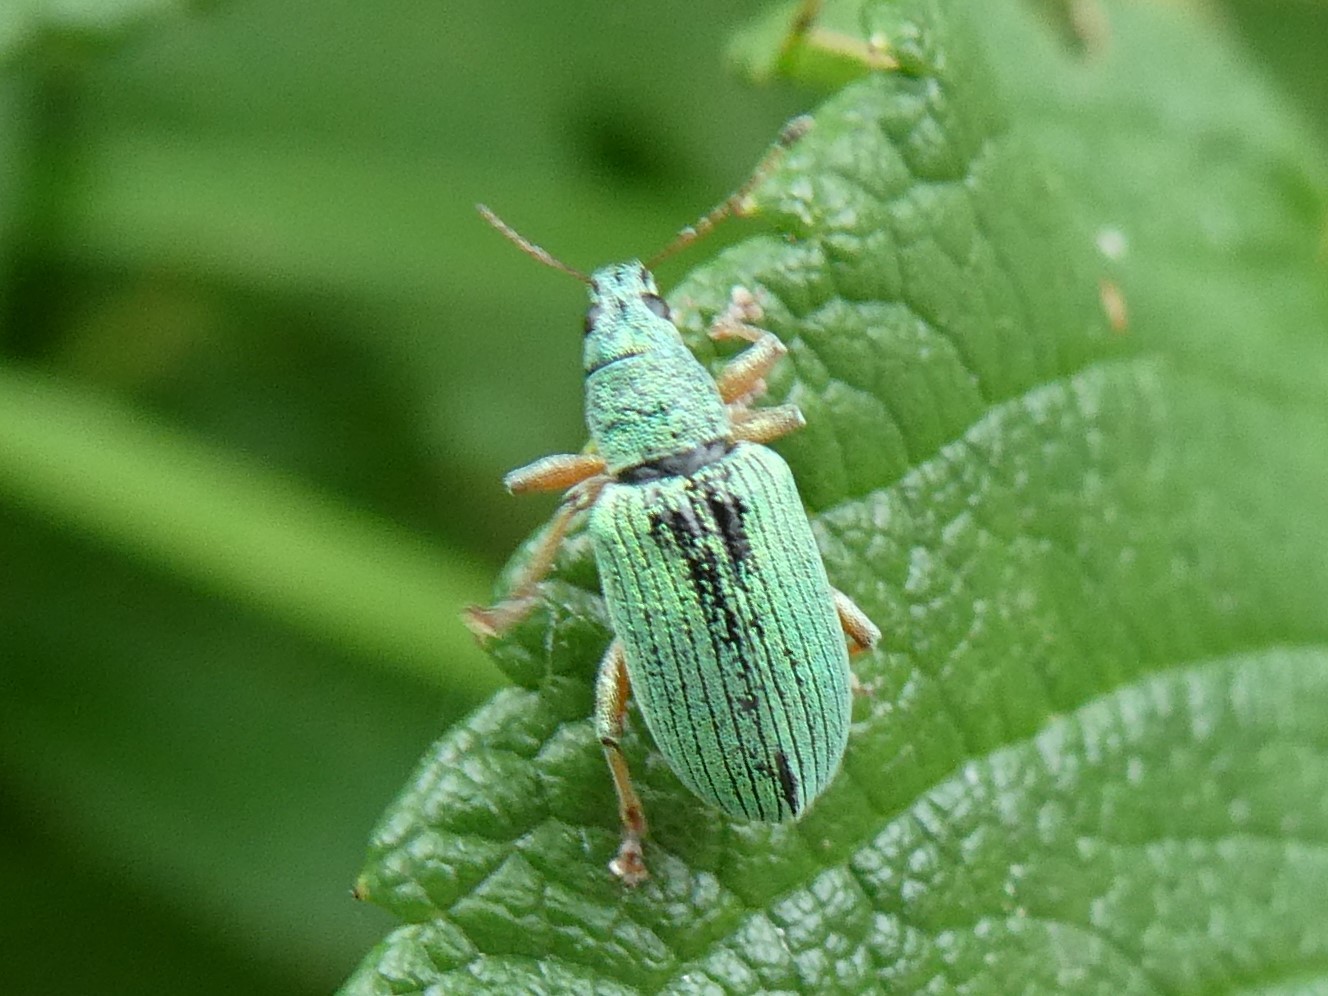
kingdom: Animalia
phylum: Arthropoda
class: Insecta
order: Coleoptera
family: Curculionidae
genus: Polydrusus
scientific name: Polydrusus formosus
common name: Weevil
